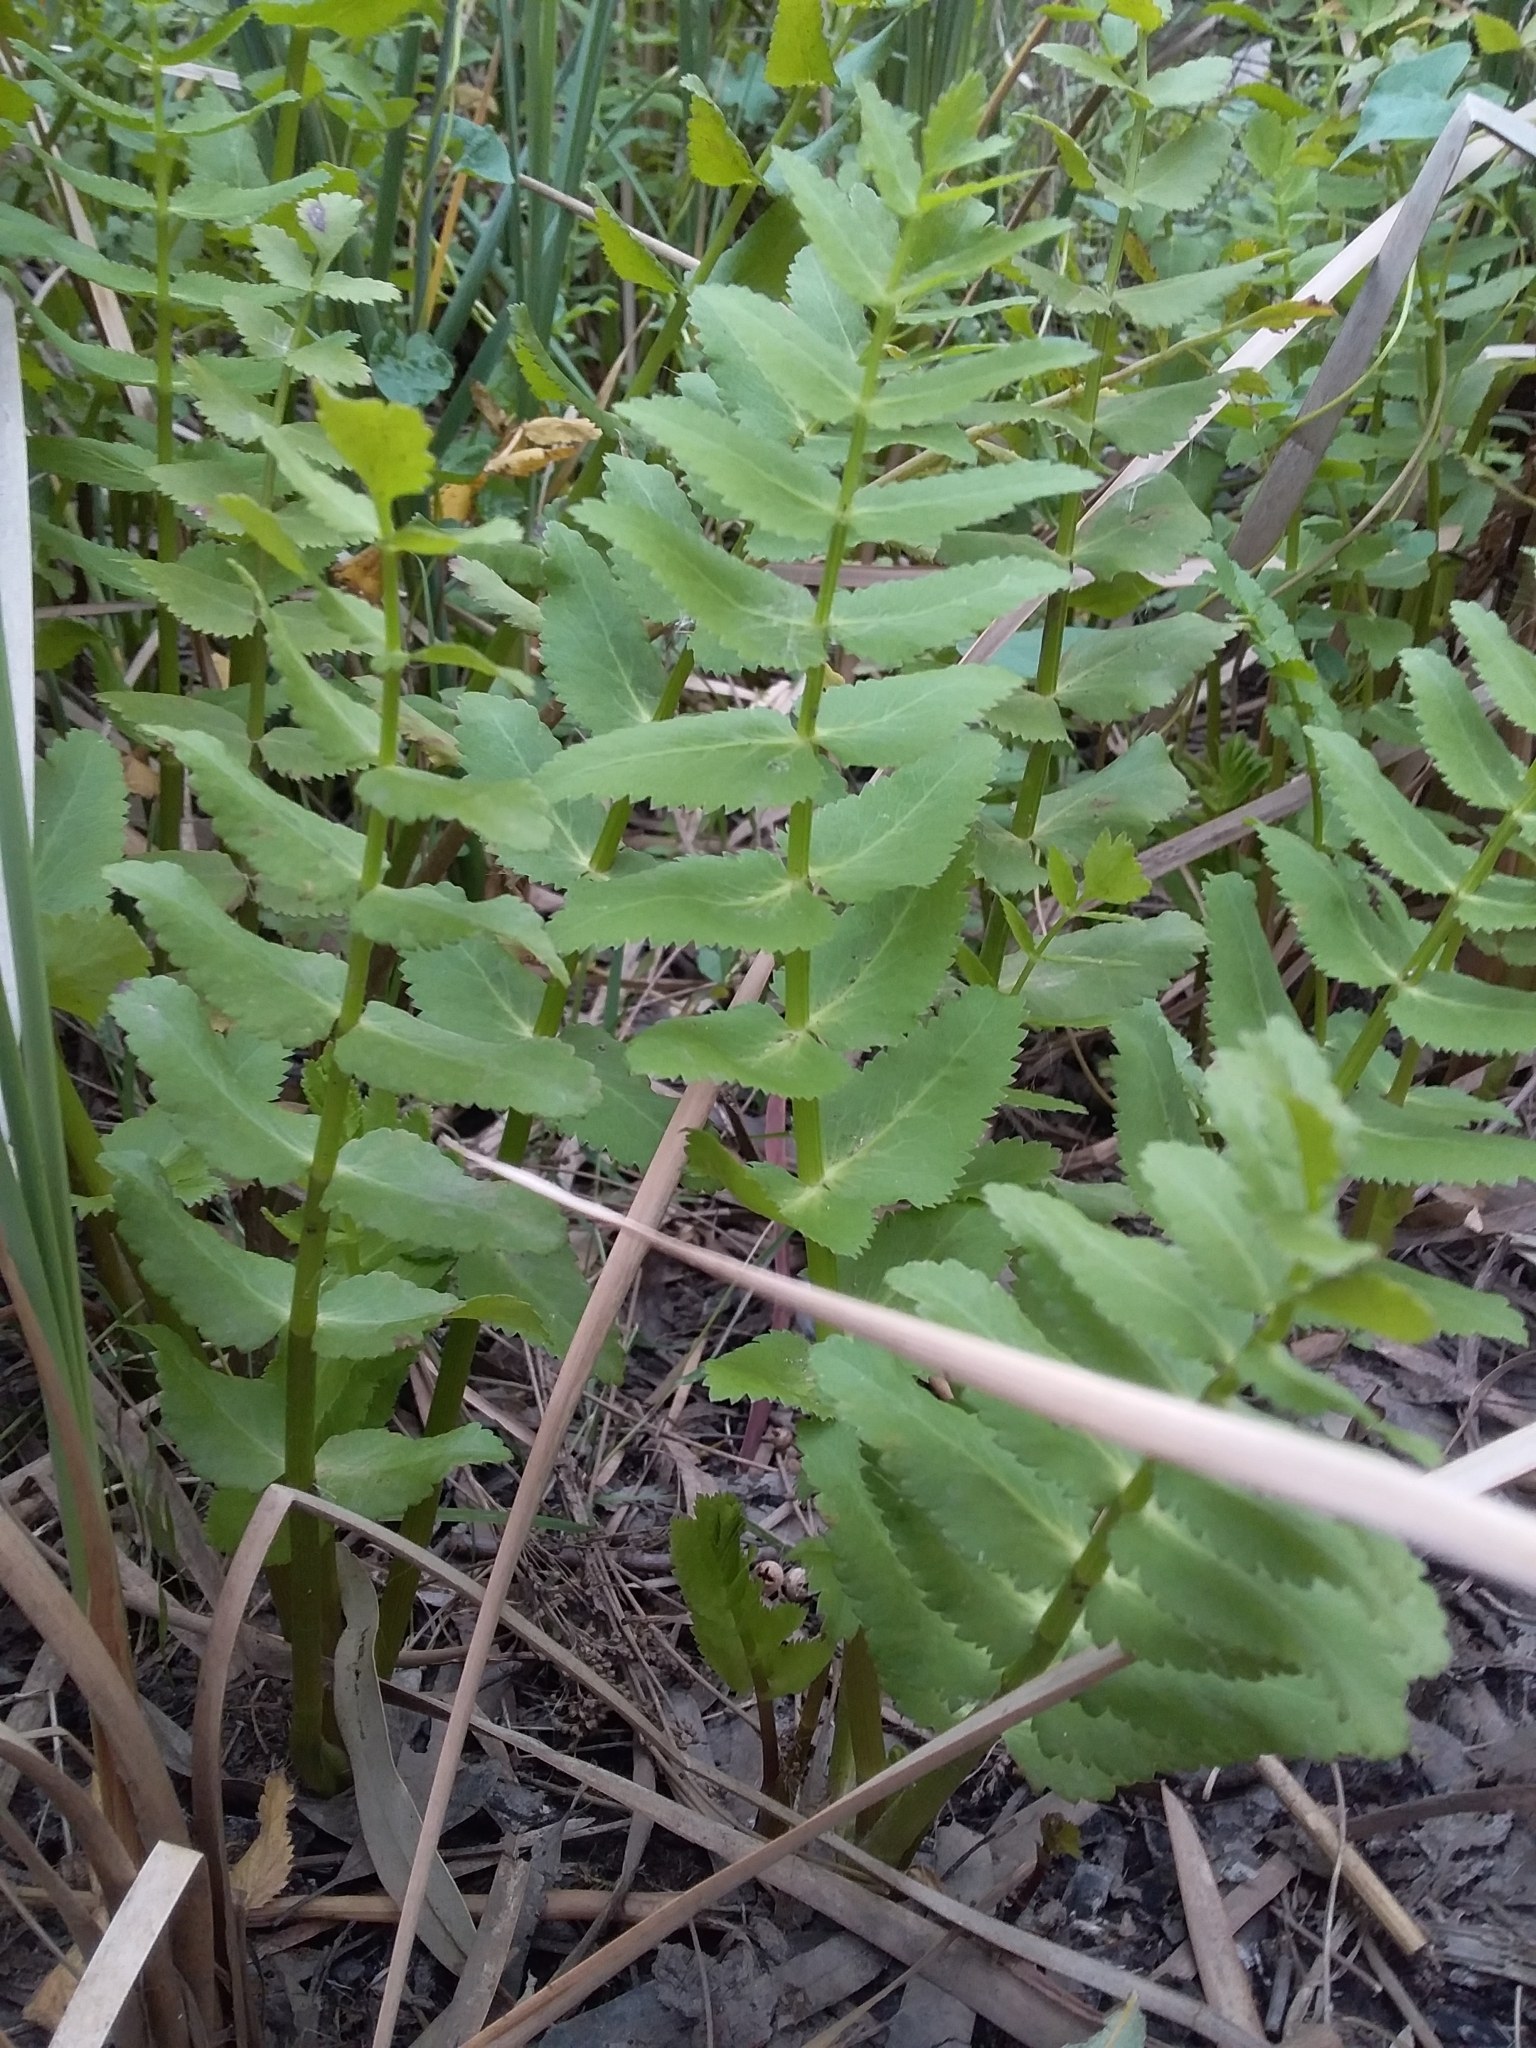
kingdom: Plantae
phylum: Tracheophyta
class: Magnoliopsida
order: Apiales
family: Apiaceae
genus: Berula
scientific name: Berula erecta
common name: Lesser water-parsnip
